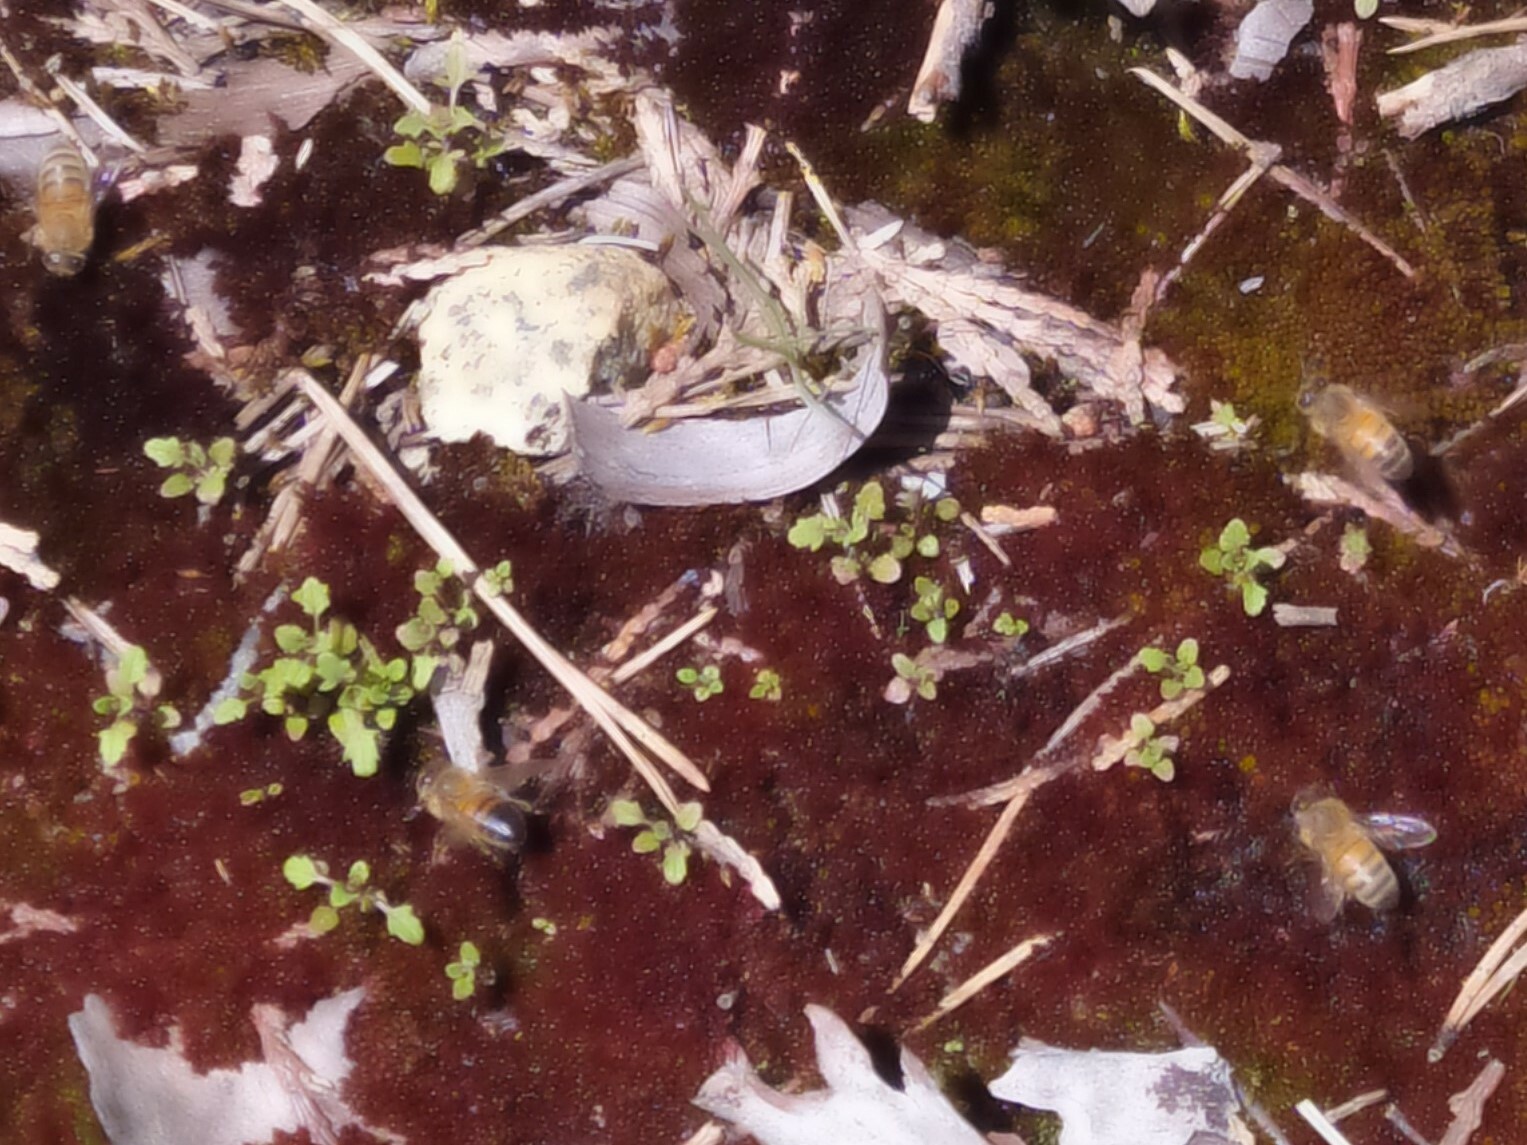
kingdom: Animalia
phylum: Arthropoda
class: Insecta
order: Hymenoptera
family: Apidae
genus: Apis
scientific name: Apis mellifera
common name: Honey bee
